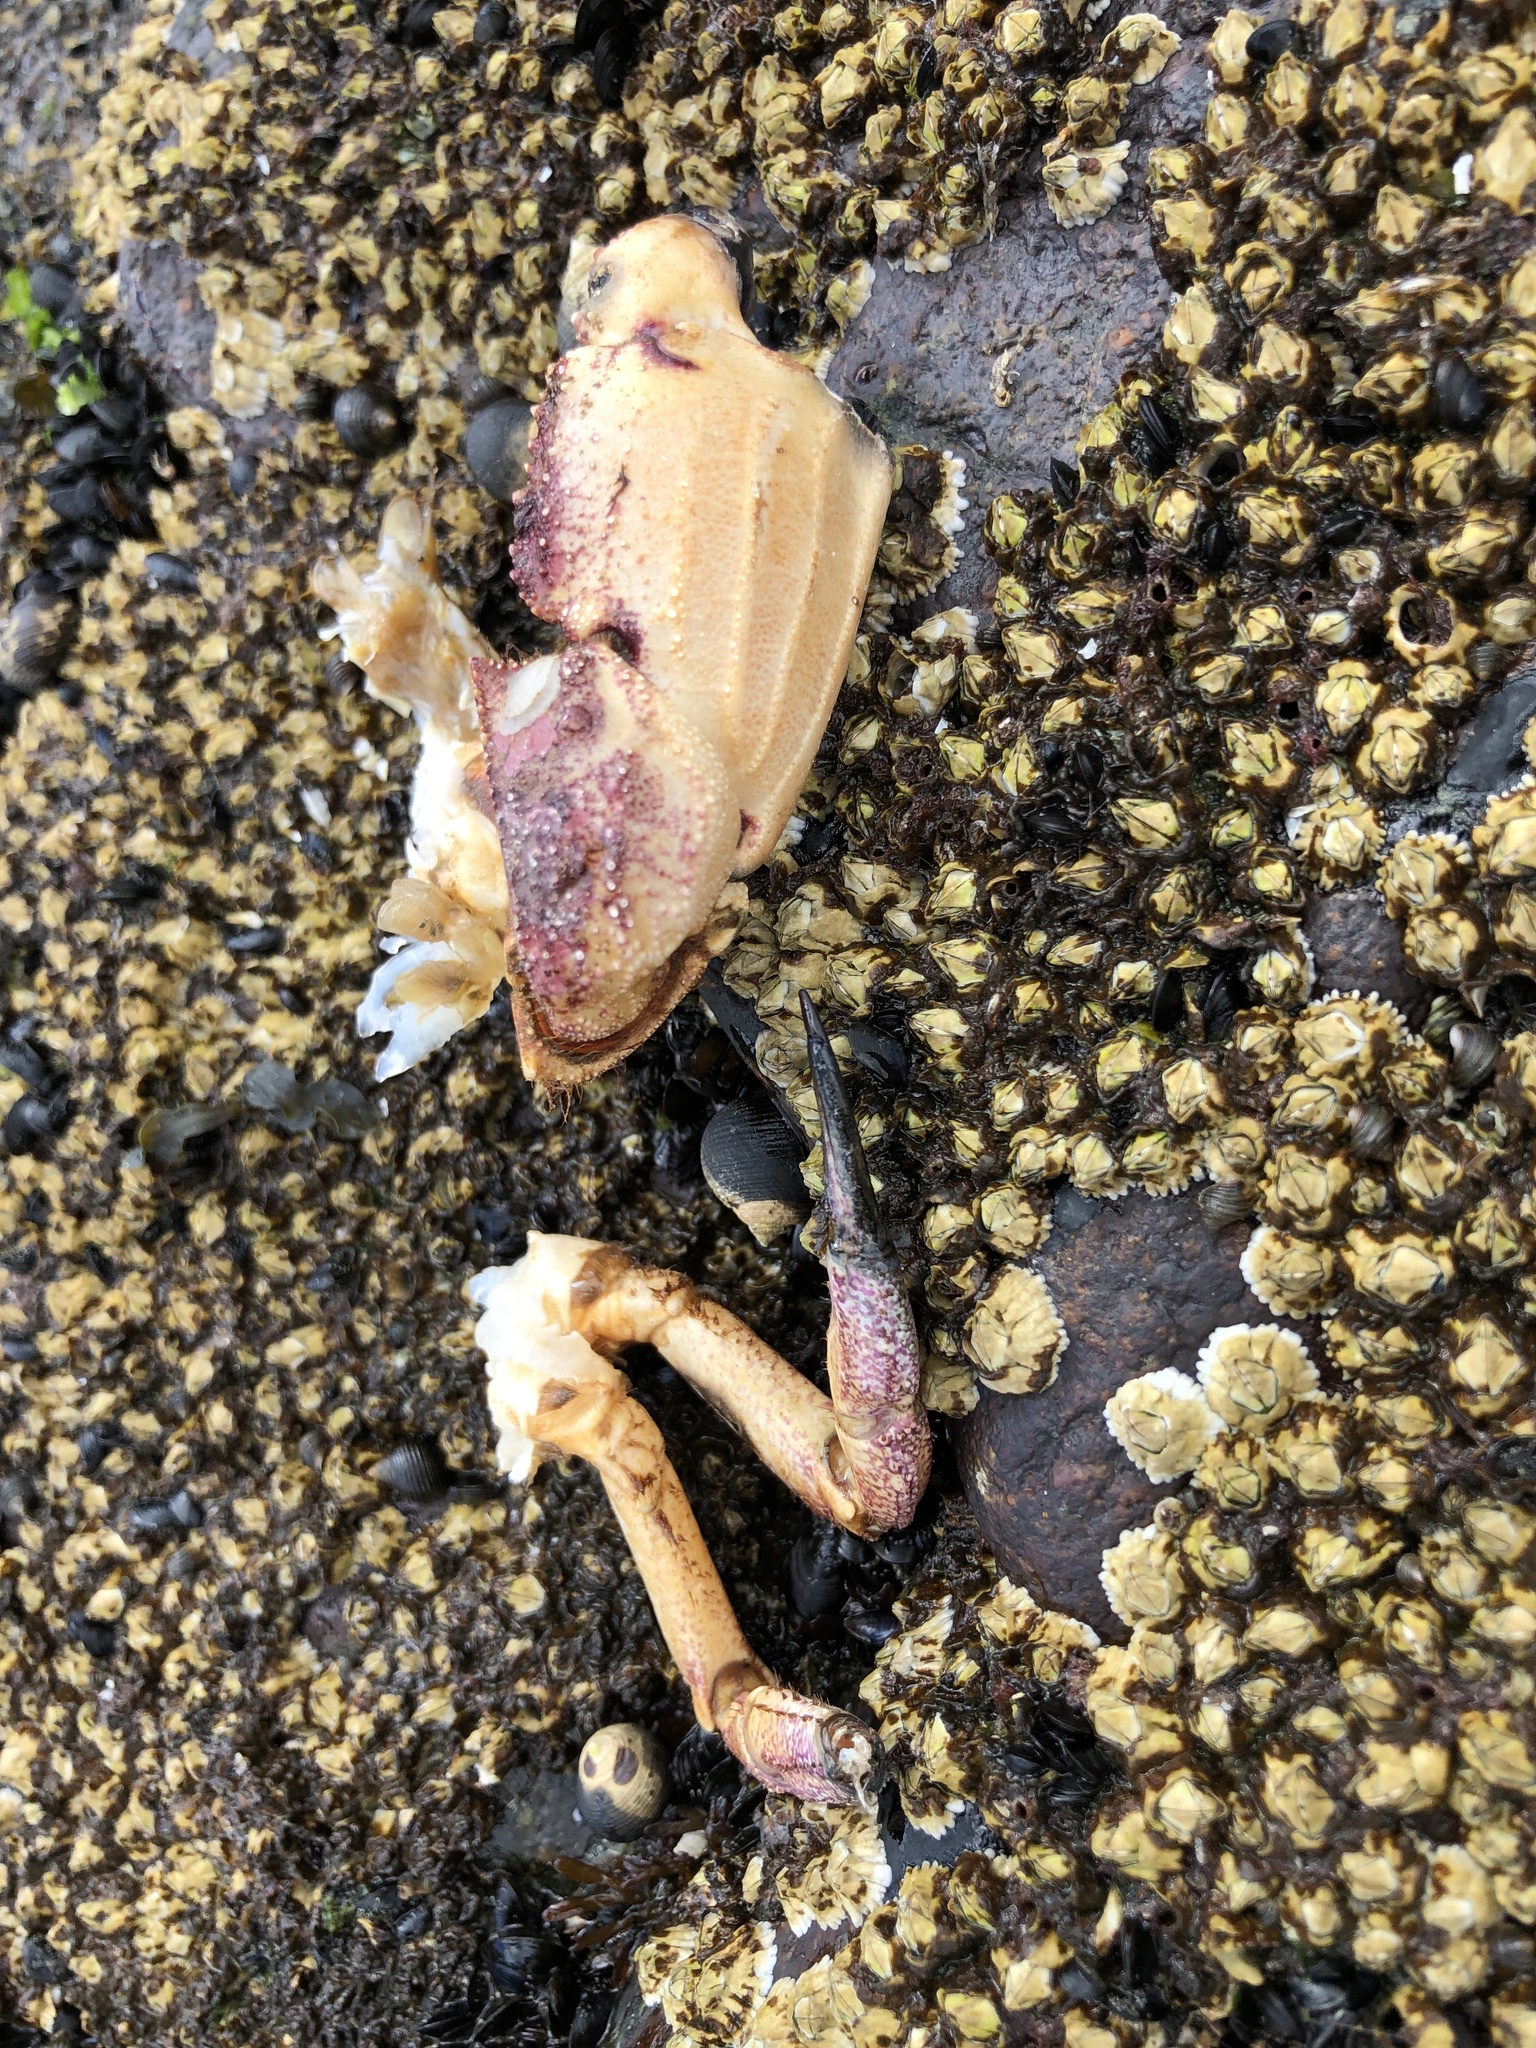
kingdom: Animalia
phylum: Arthropoda
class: Malacostraca
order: Decapoda
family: Cancridae
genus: Cancer
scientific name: Cancer borealis
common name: Jonah crab
